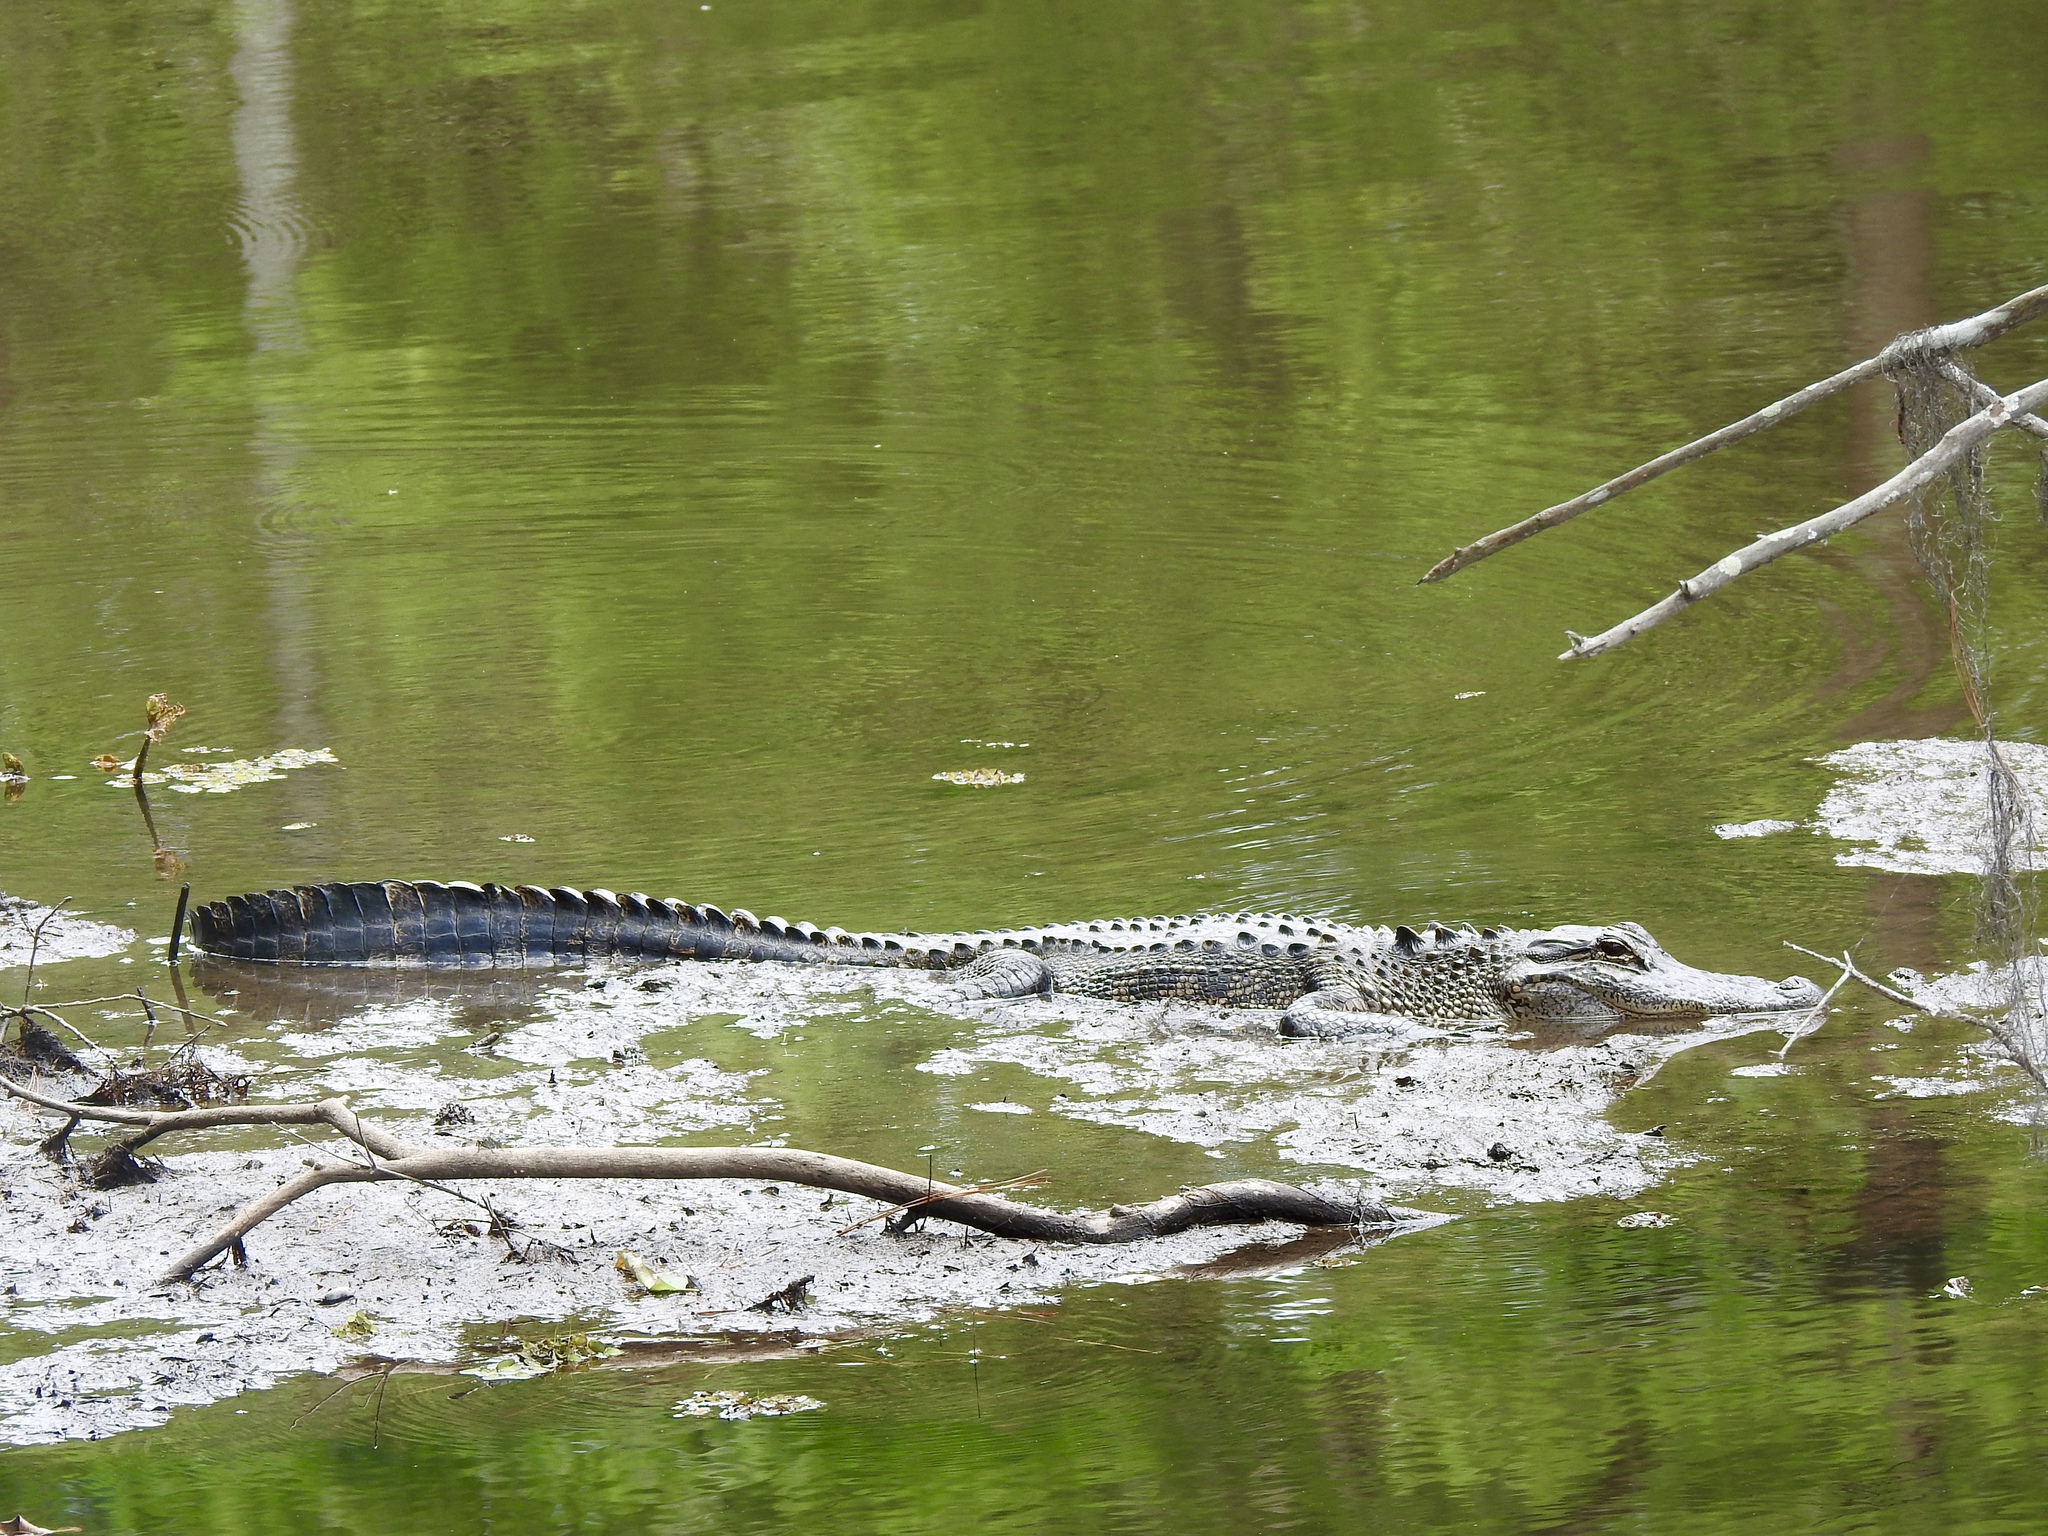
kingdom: Animalia
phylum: Chordata
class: Crocodylia
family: Alligatoridae
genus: Alligator
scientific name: Alligator mississippiensis
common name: American alligator
